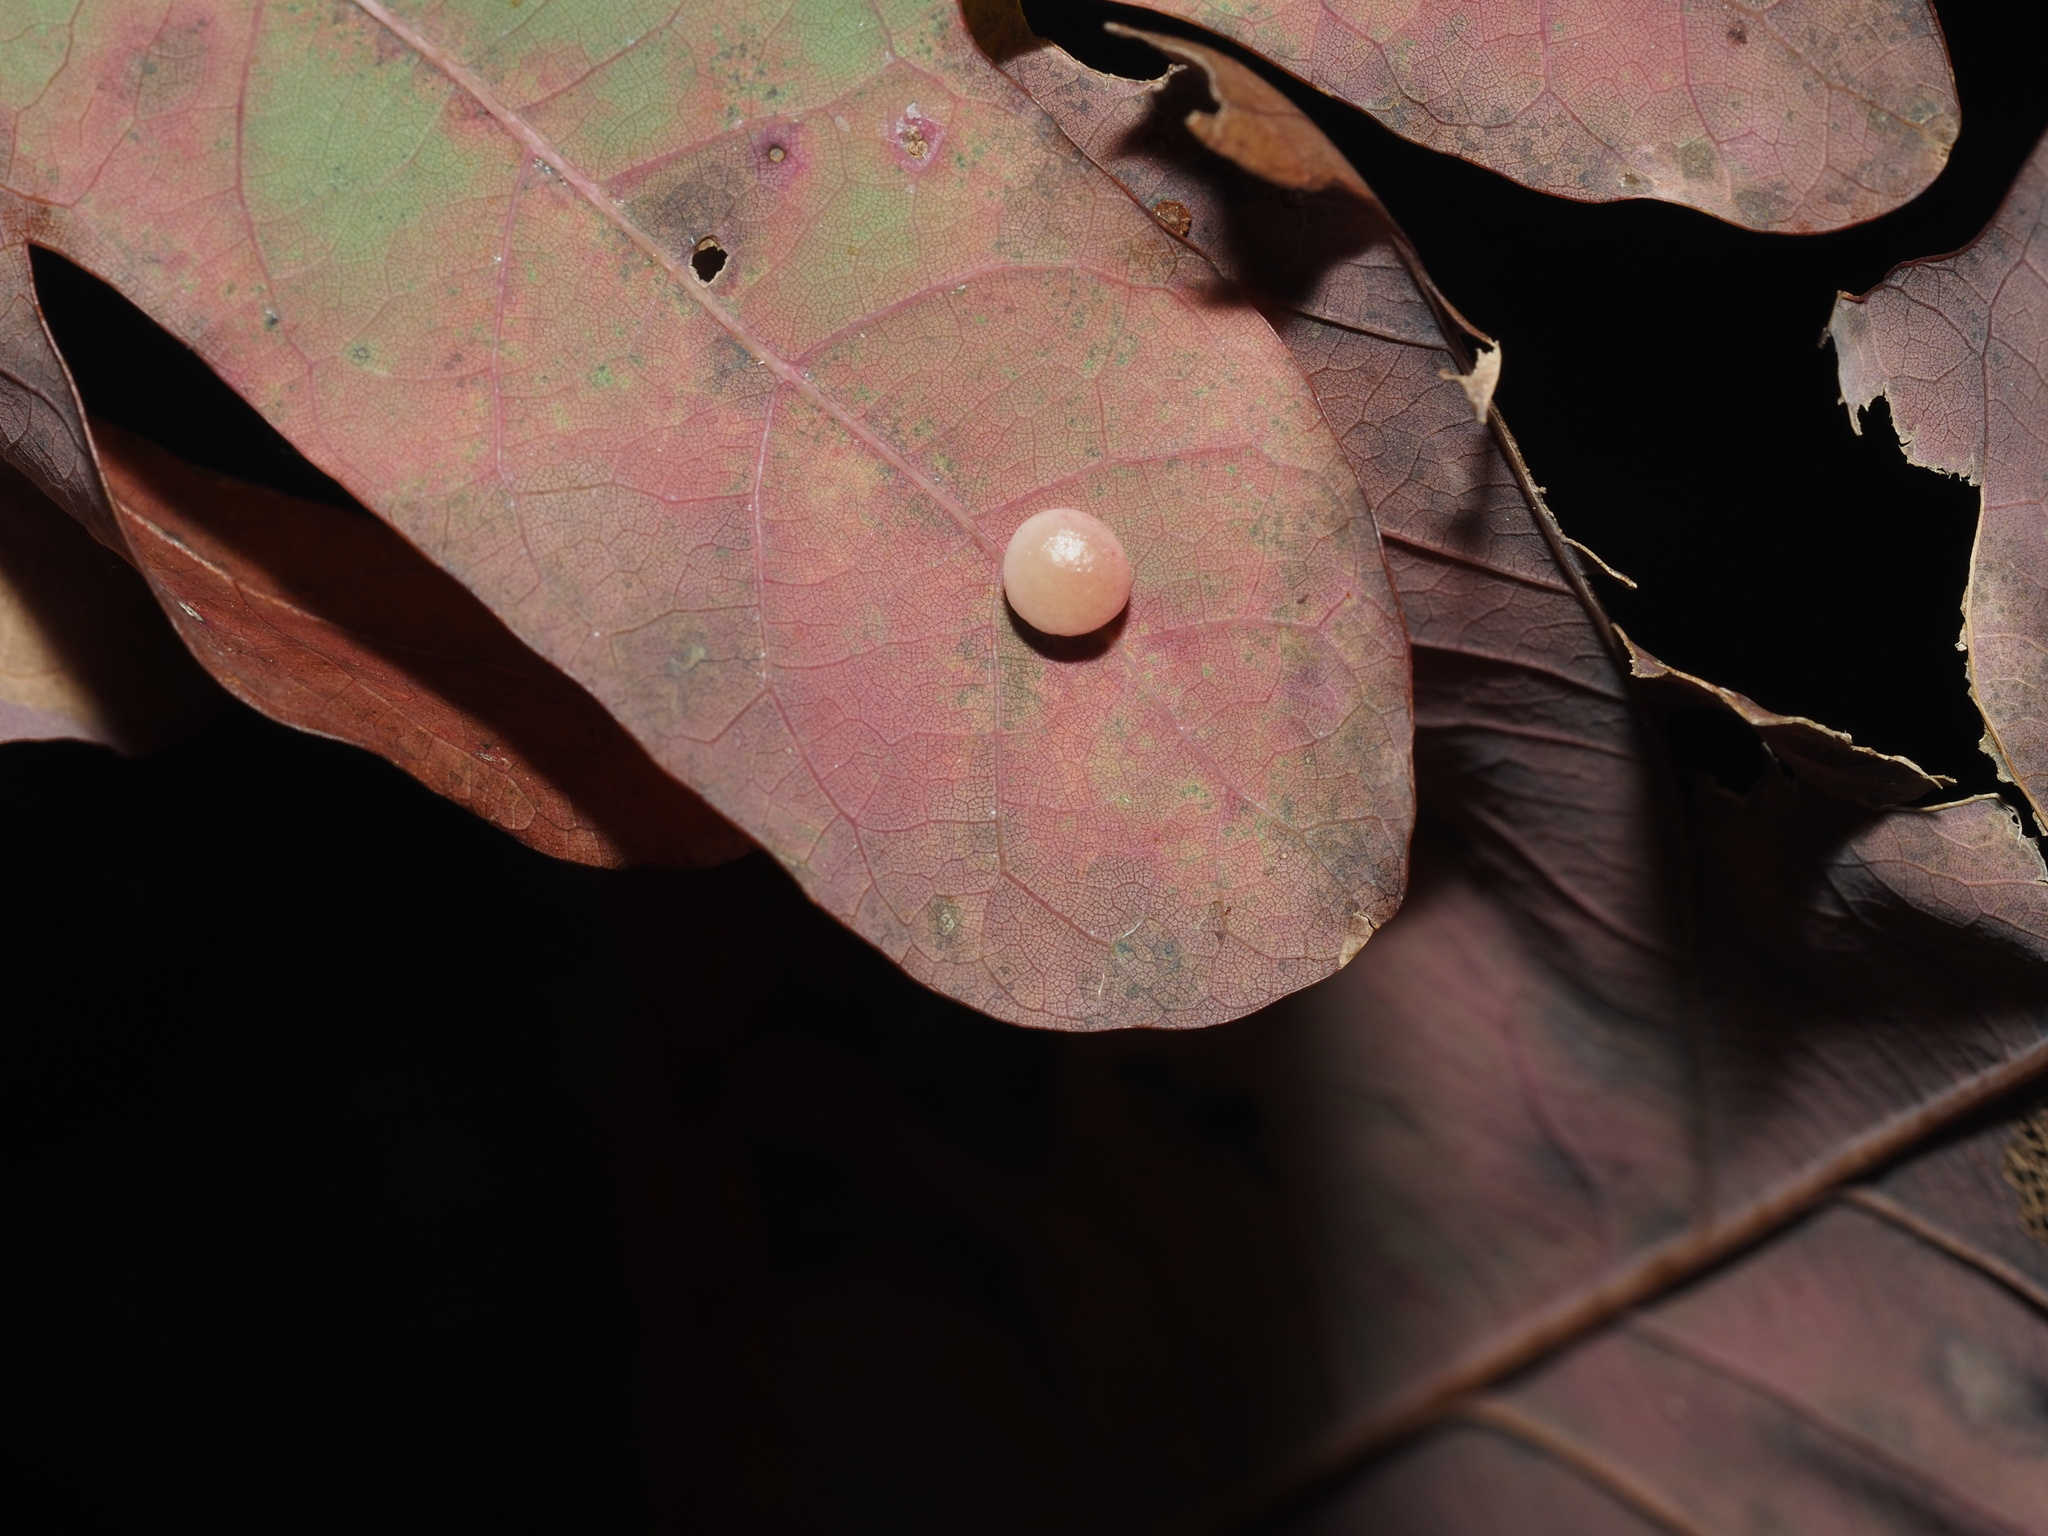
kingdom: Animalia
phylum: Arthropoda
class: Insecta
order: Hymenoptera
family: Cynipidae
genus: Phylloteras
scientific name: Phylloteras
